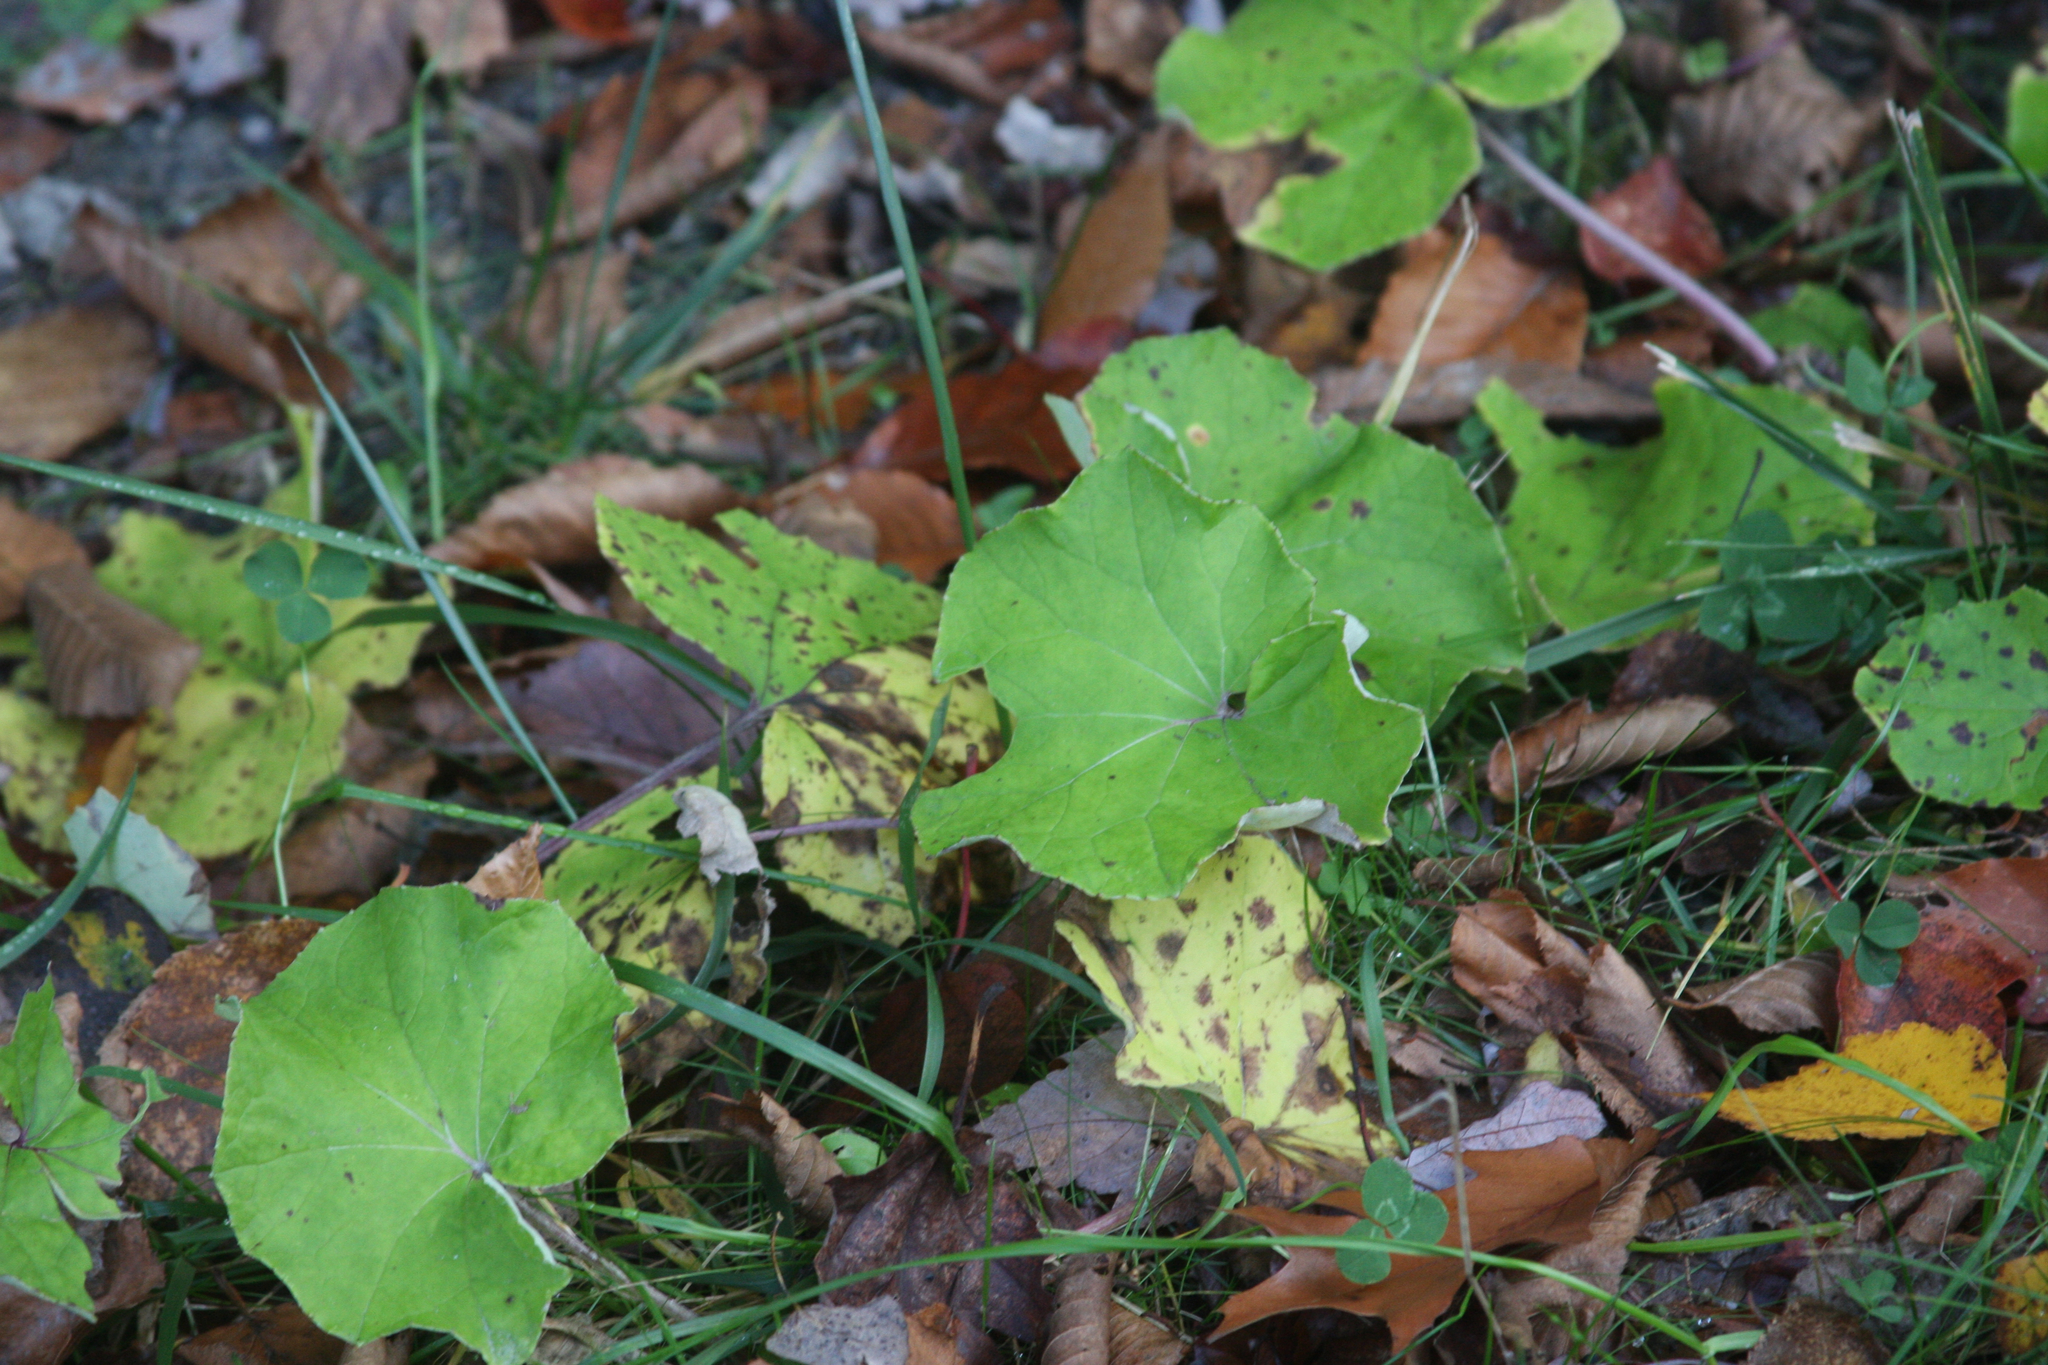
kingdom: Plantae
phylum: Tracheophyta
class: Magnoliopsida
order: Asterales
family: Asteraceae
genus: Tussilago
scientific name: Tussilago farfara
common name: Coltsfoot
